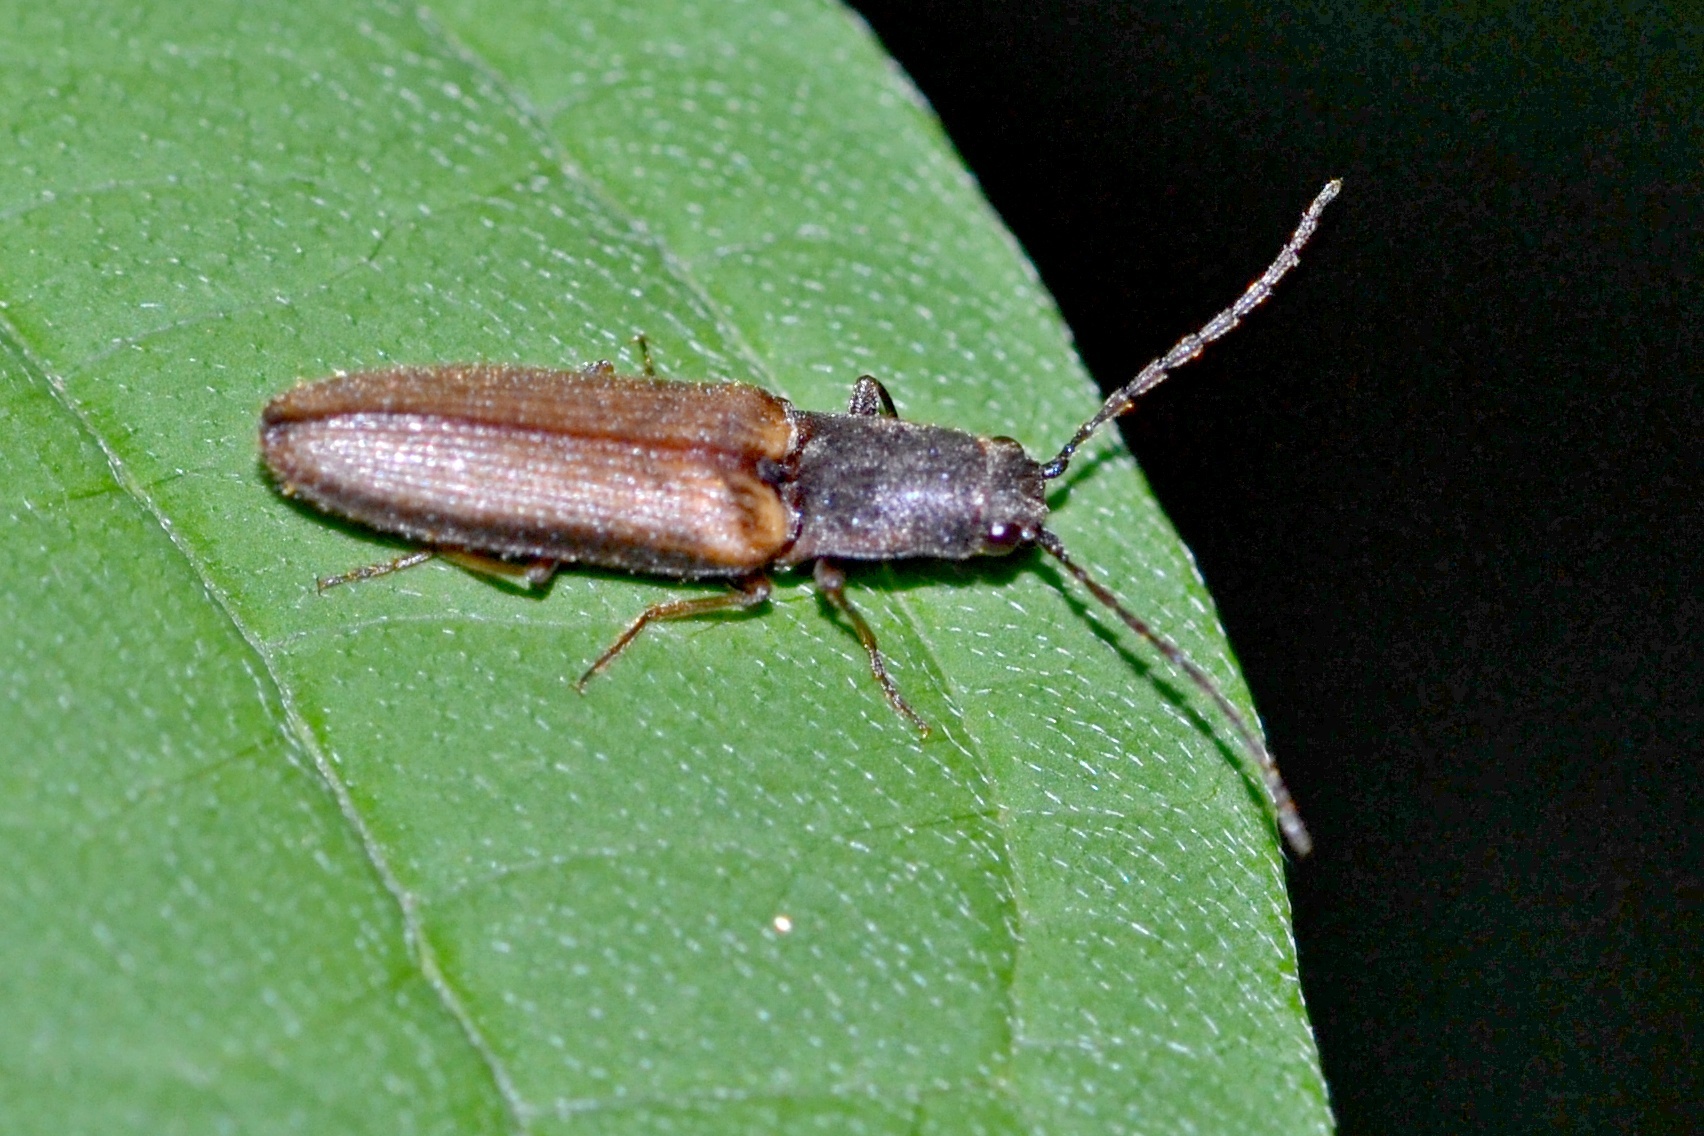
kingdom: Animalia
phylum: Arthropoda
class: Insecta
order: Coleoptera
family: Elateridae
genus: Athous
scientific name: Athous bicolor
